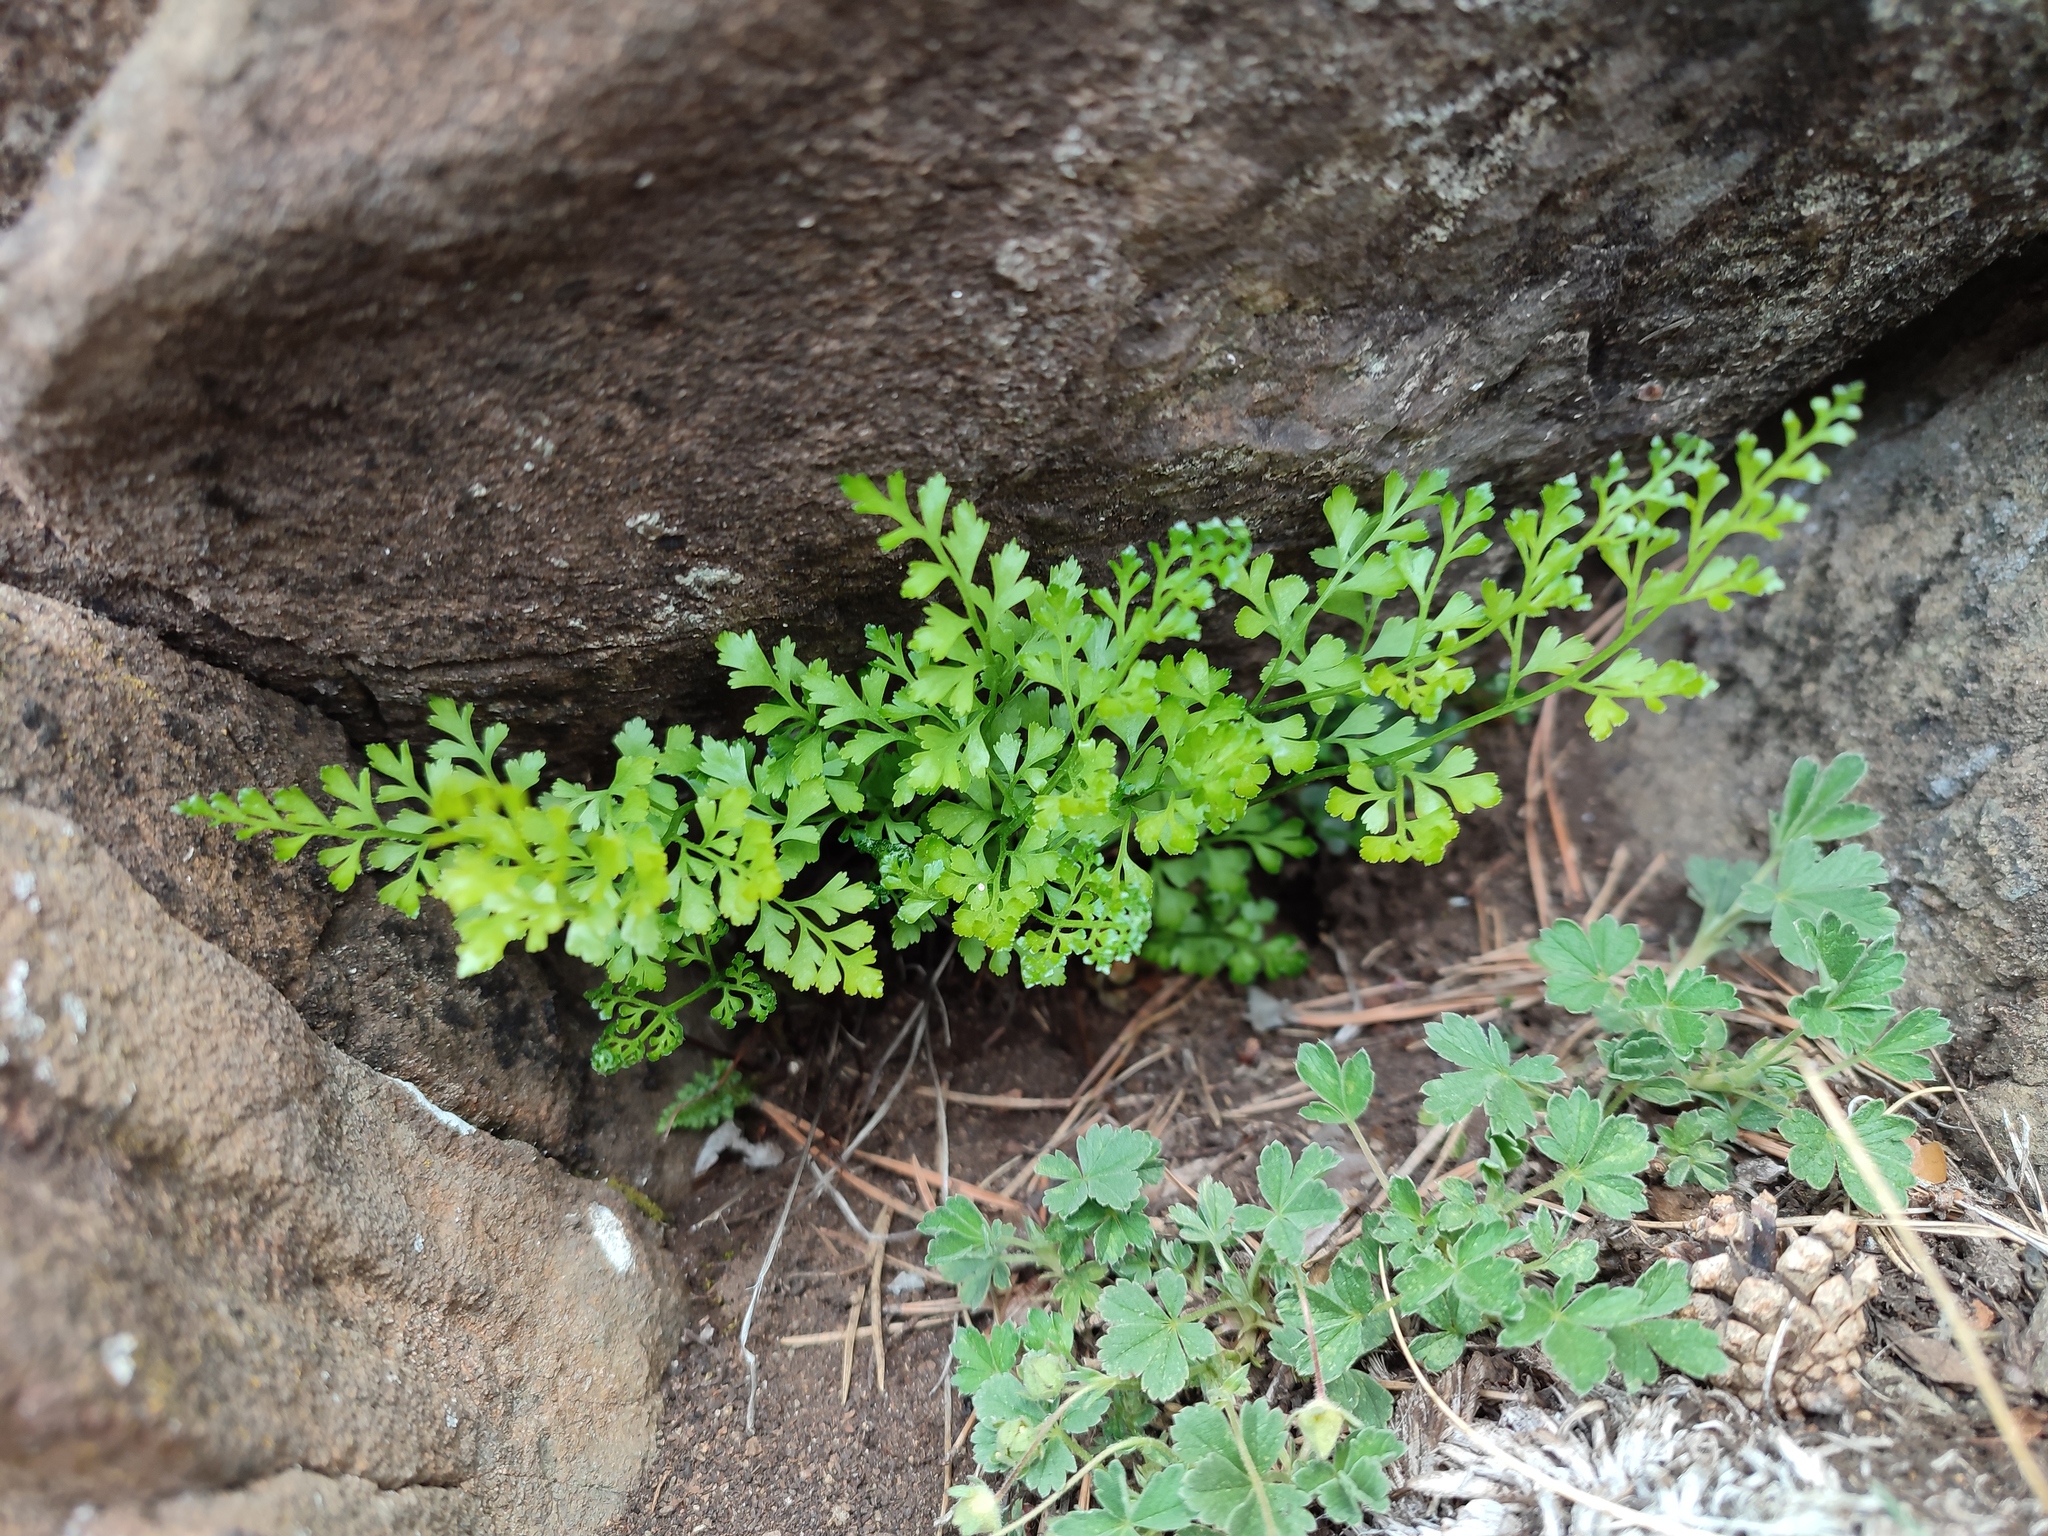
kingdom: Plantae
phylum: Tracheophyta
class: Polypodiopsida
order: Polypodiales
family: Aspleniaceae
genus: Asplenium
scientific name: Asplenium cuneifolium
